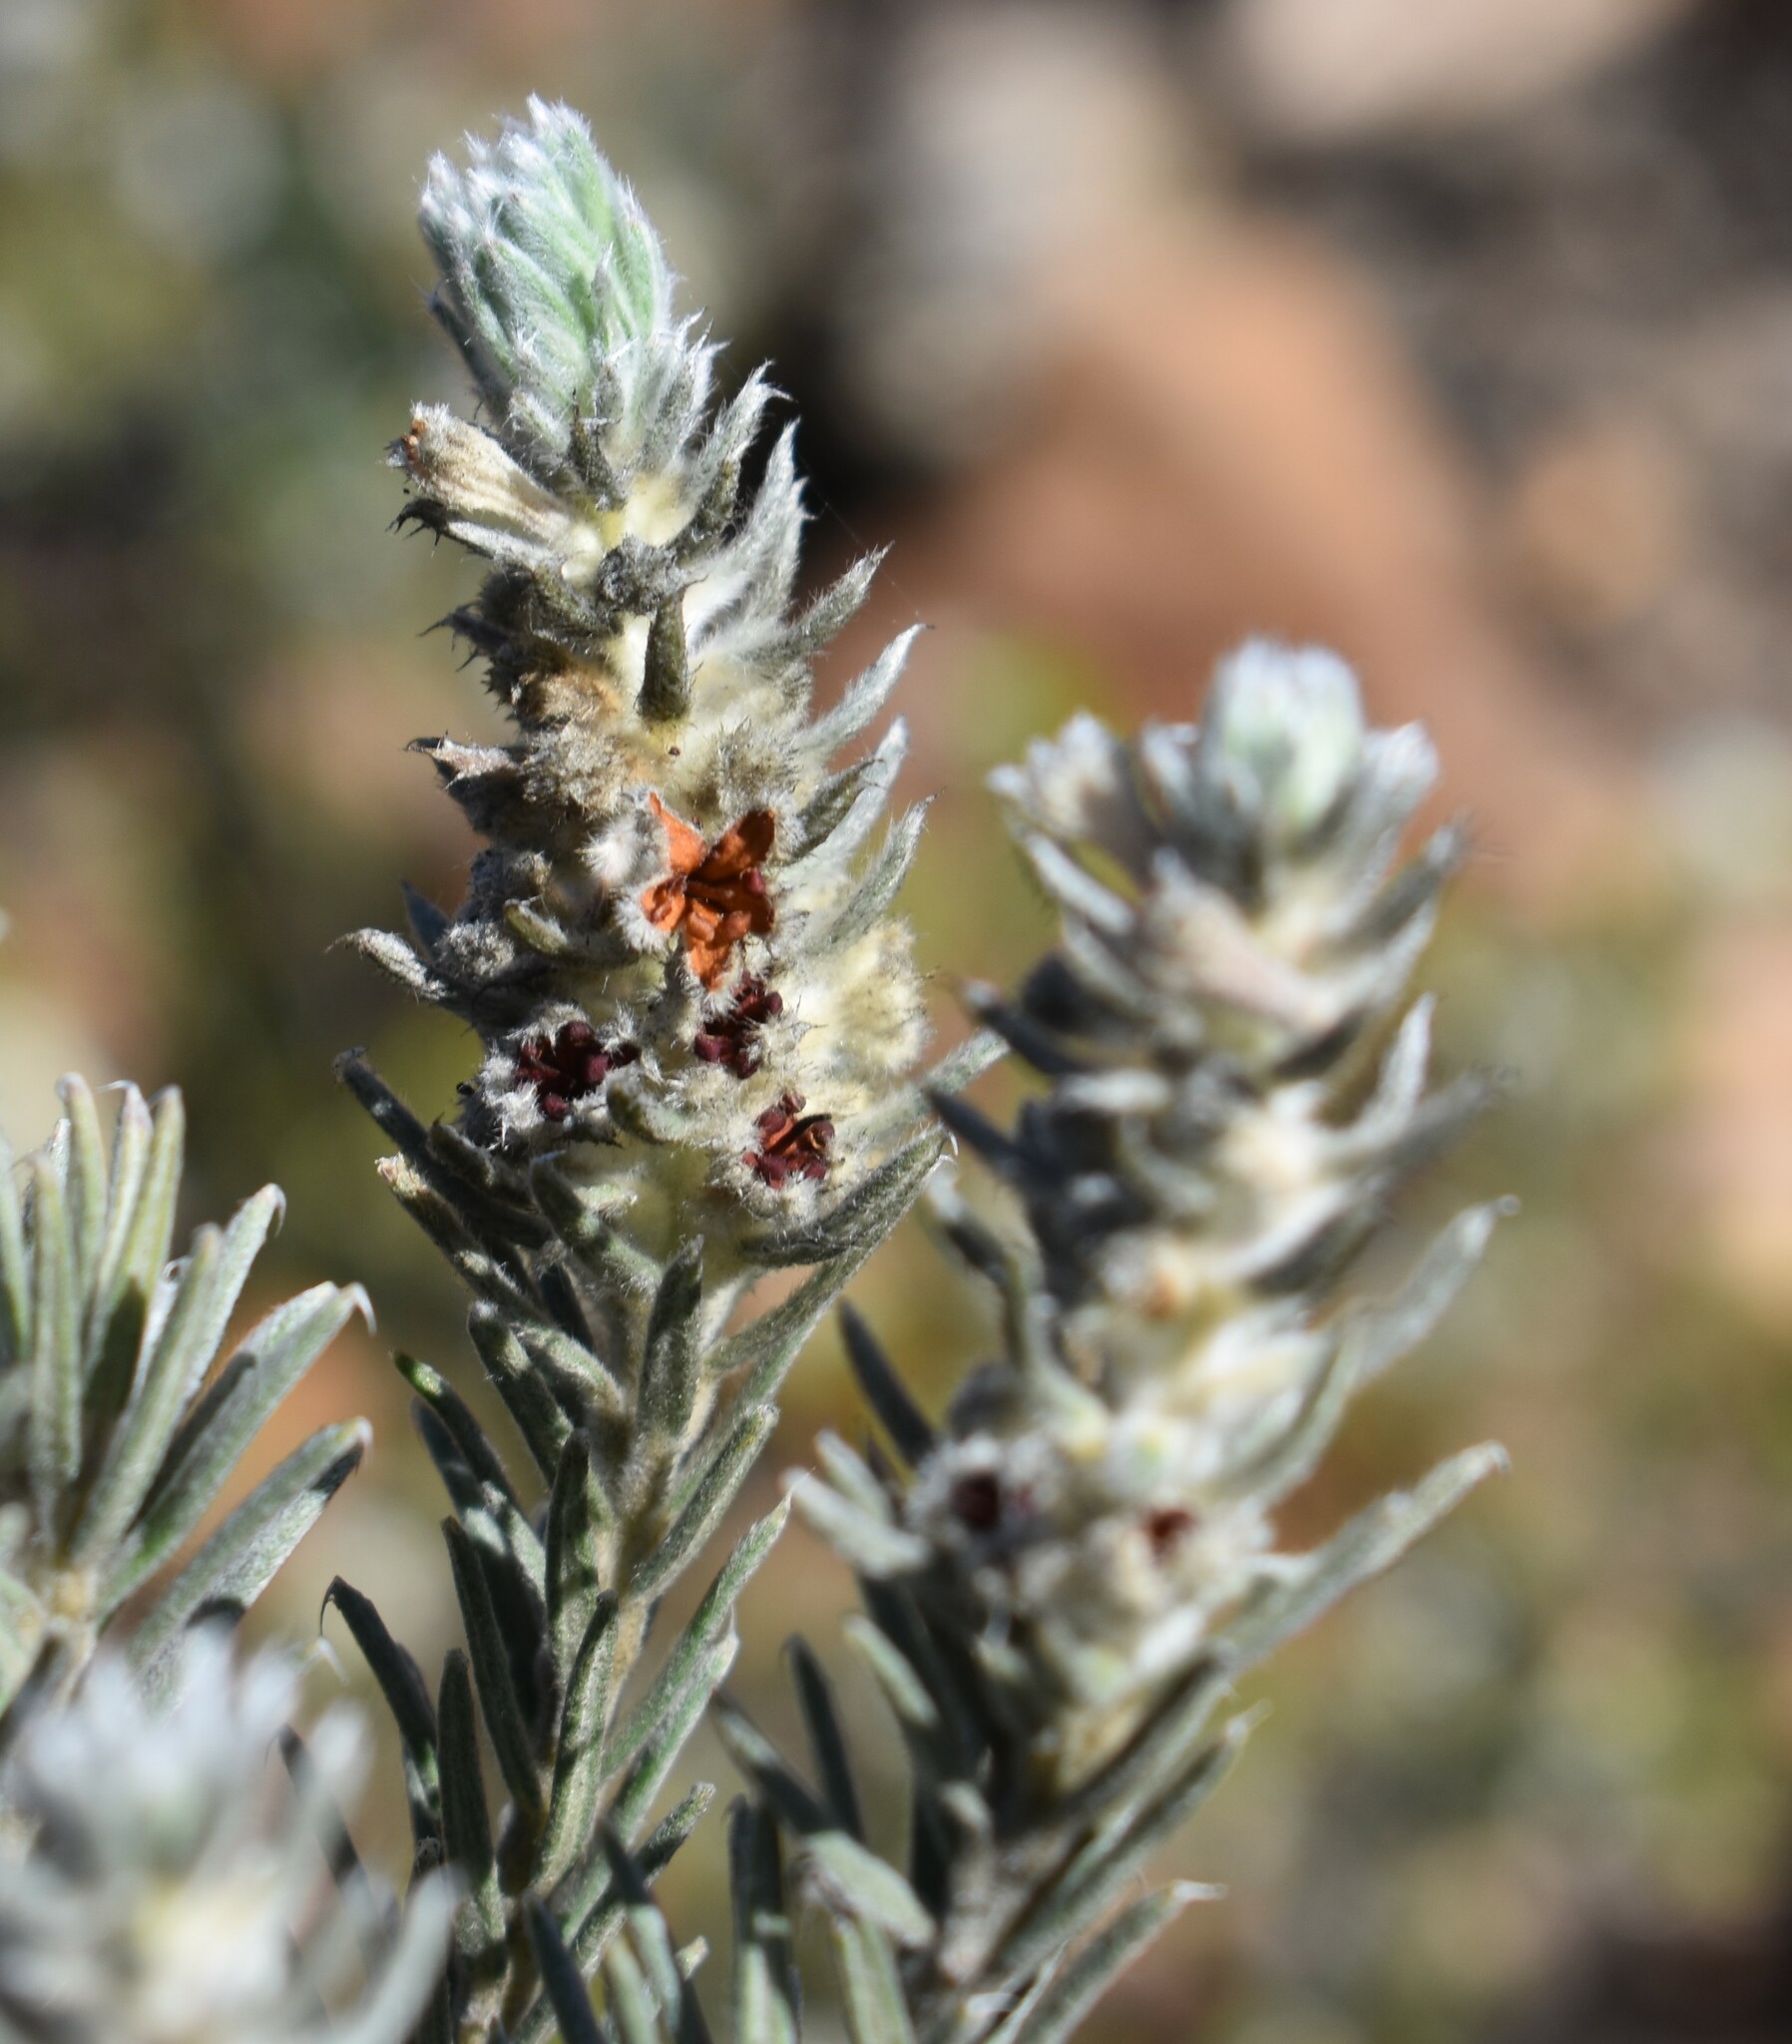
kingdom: Plantae
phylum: Tracheophyta
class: Magnoliopsida
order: Rosales
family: Rhamnaceae
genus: Phylica
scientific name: Phylica willdenowiana
